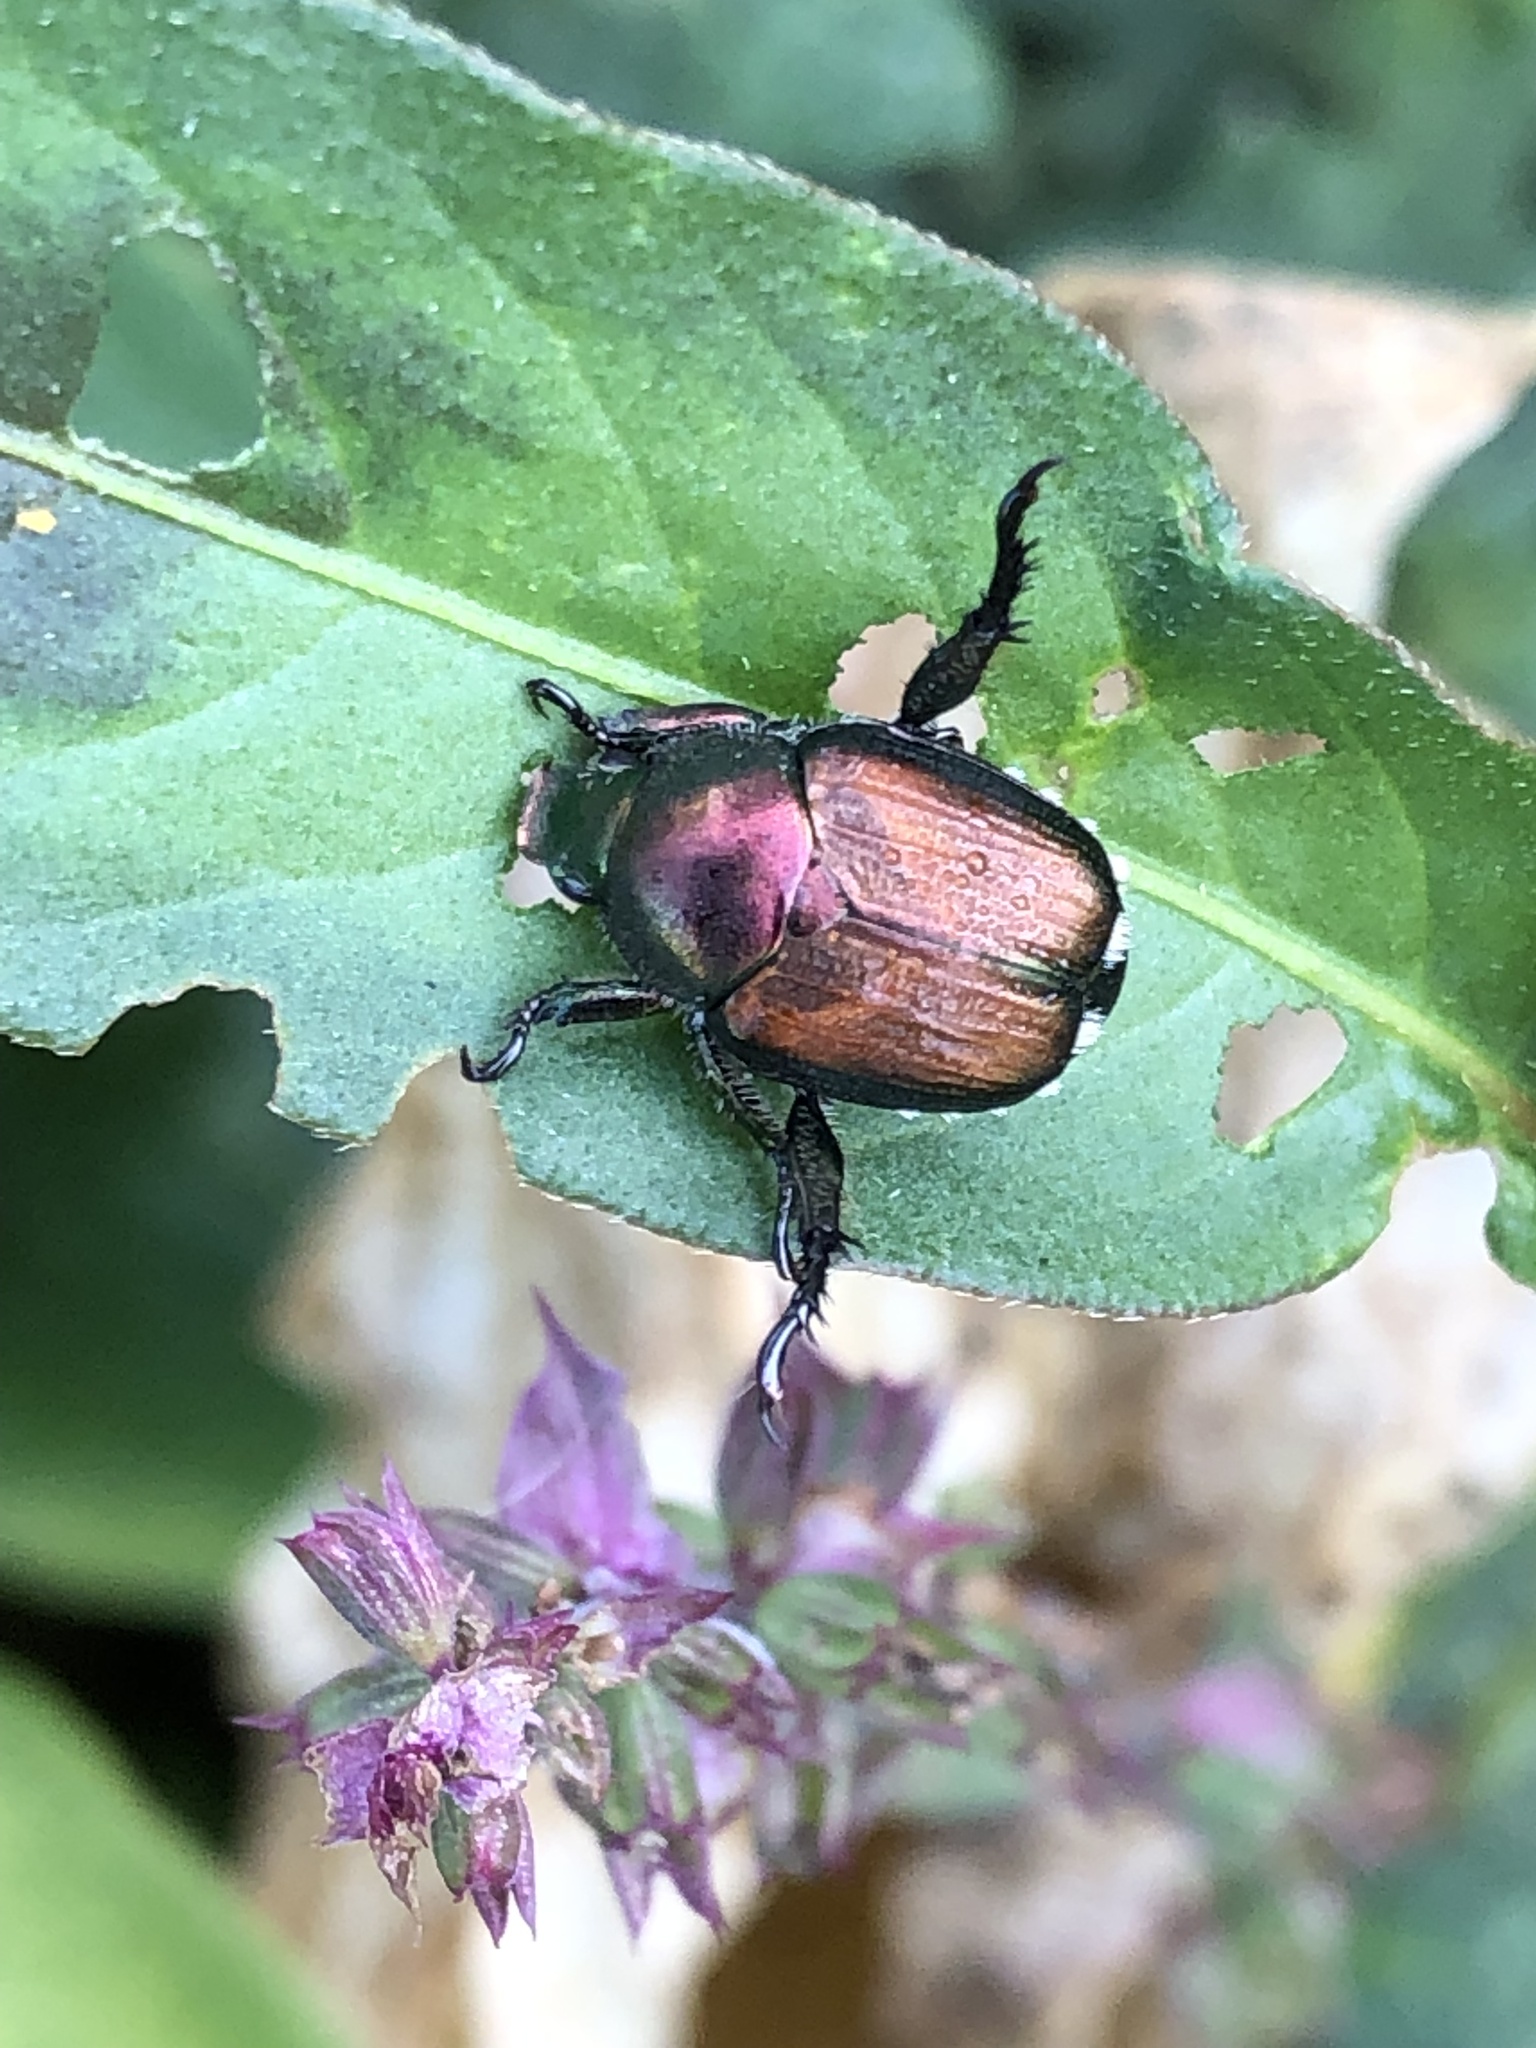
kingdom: Animalia
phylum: Arthropoda
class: Insecta
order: Coleoptera
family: Scarabaeidae
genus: Popillia
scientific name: Popillia japonica
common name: Japanese beetle
